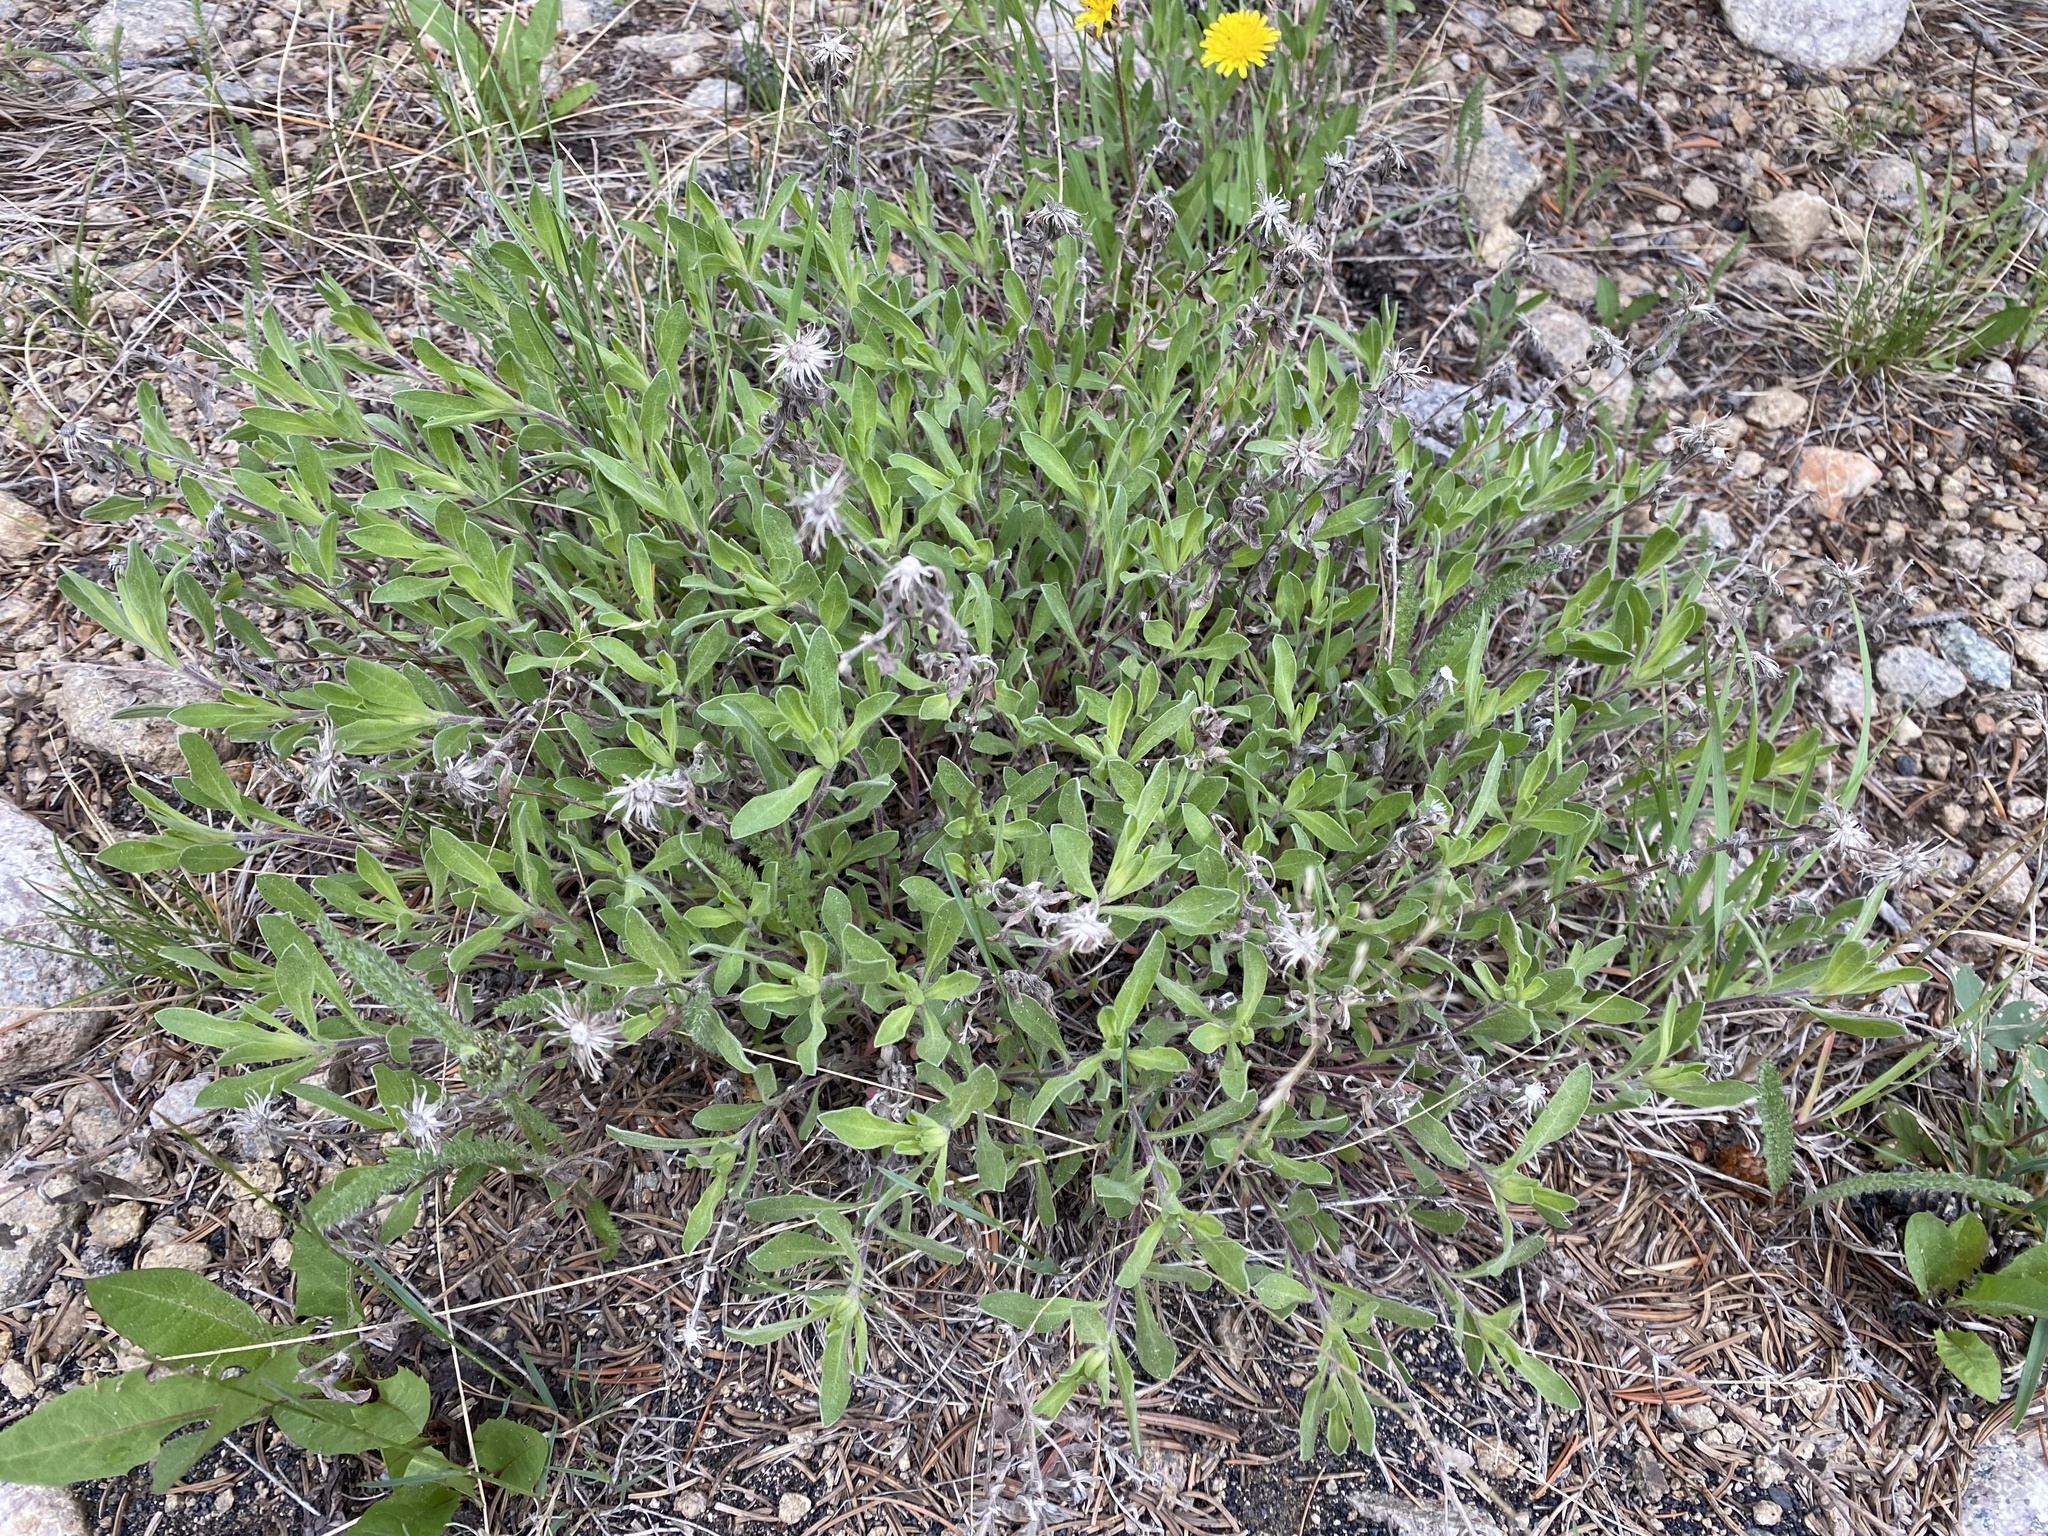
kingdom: Plantae
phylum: Tracheophyta
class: Magnoliopsida
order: Caryophyllales
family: Amaranthaceae
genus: Phyllotheca
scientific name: Phyllotheca
